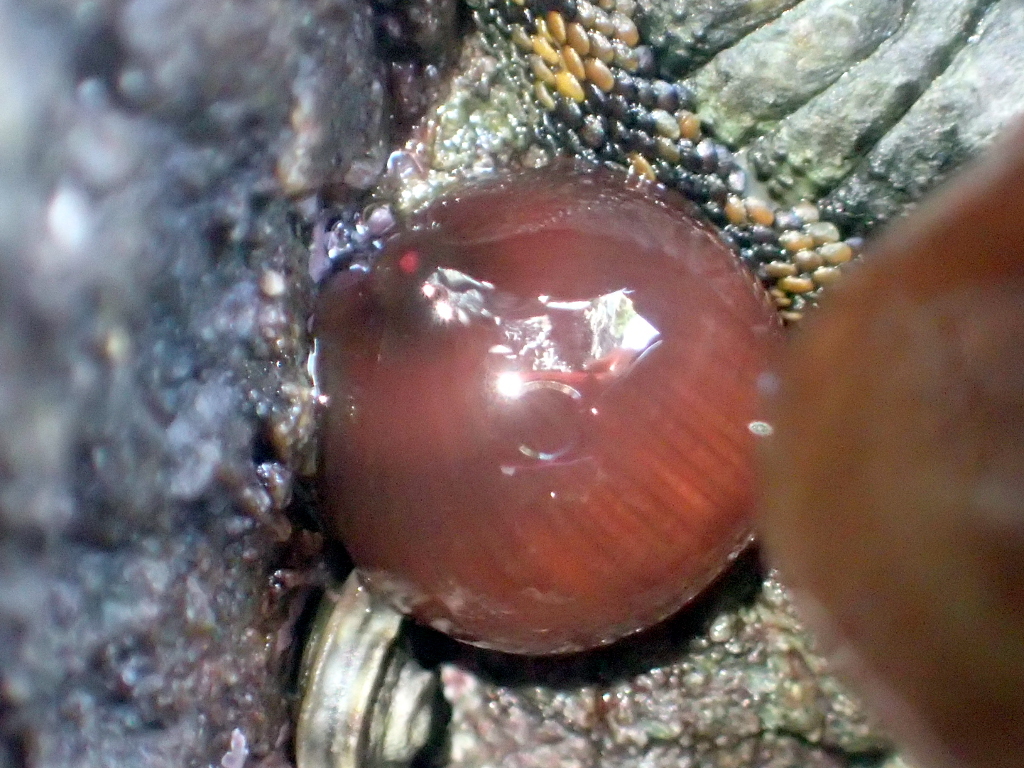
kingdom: Animalia
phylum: Cnidaria
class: Anthozoa
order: Actiniaria
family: Actiniidae
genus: Actinia
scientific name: Actinia tenebrosa
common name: Waratah anemone
